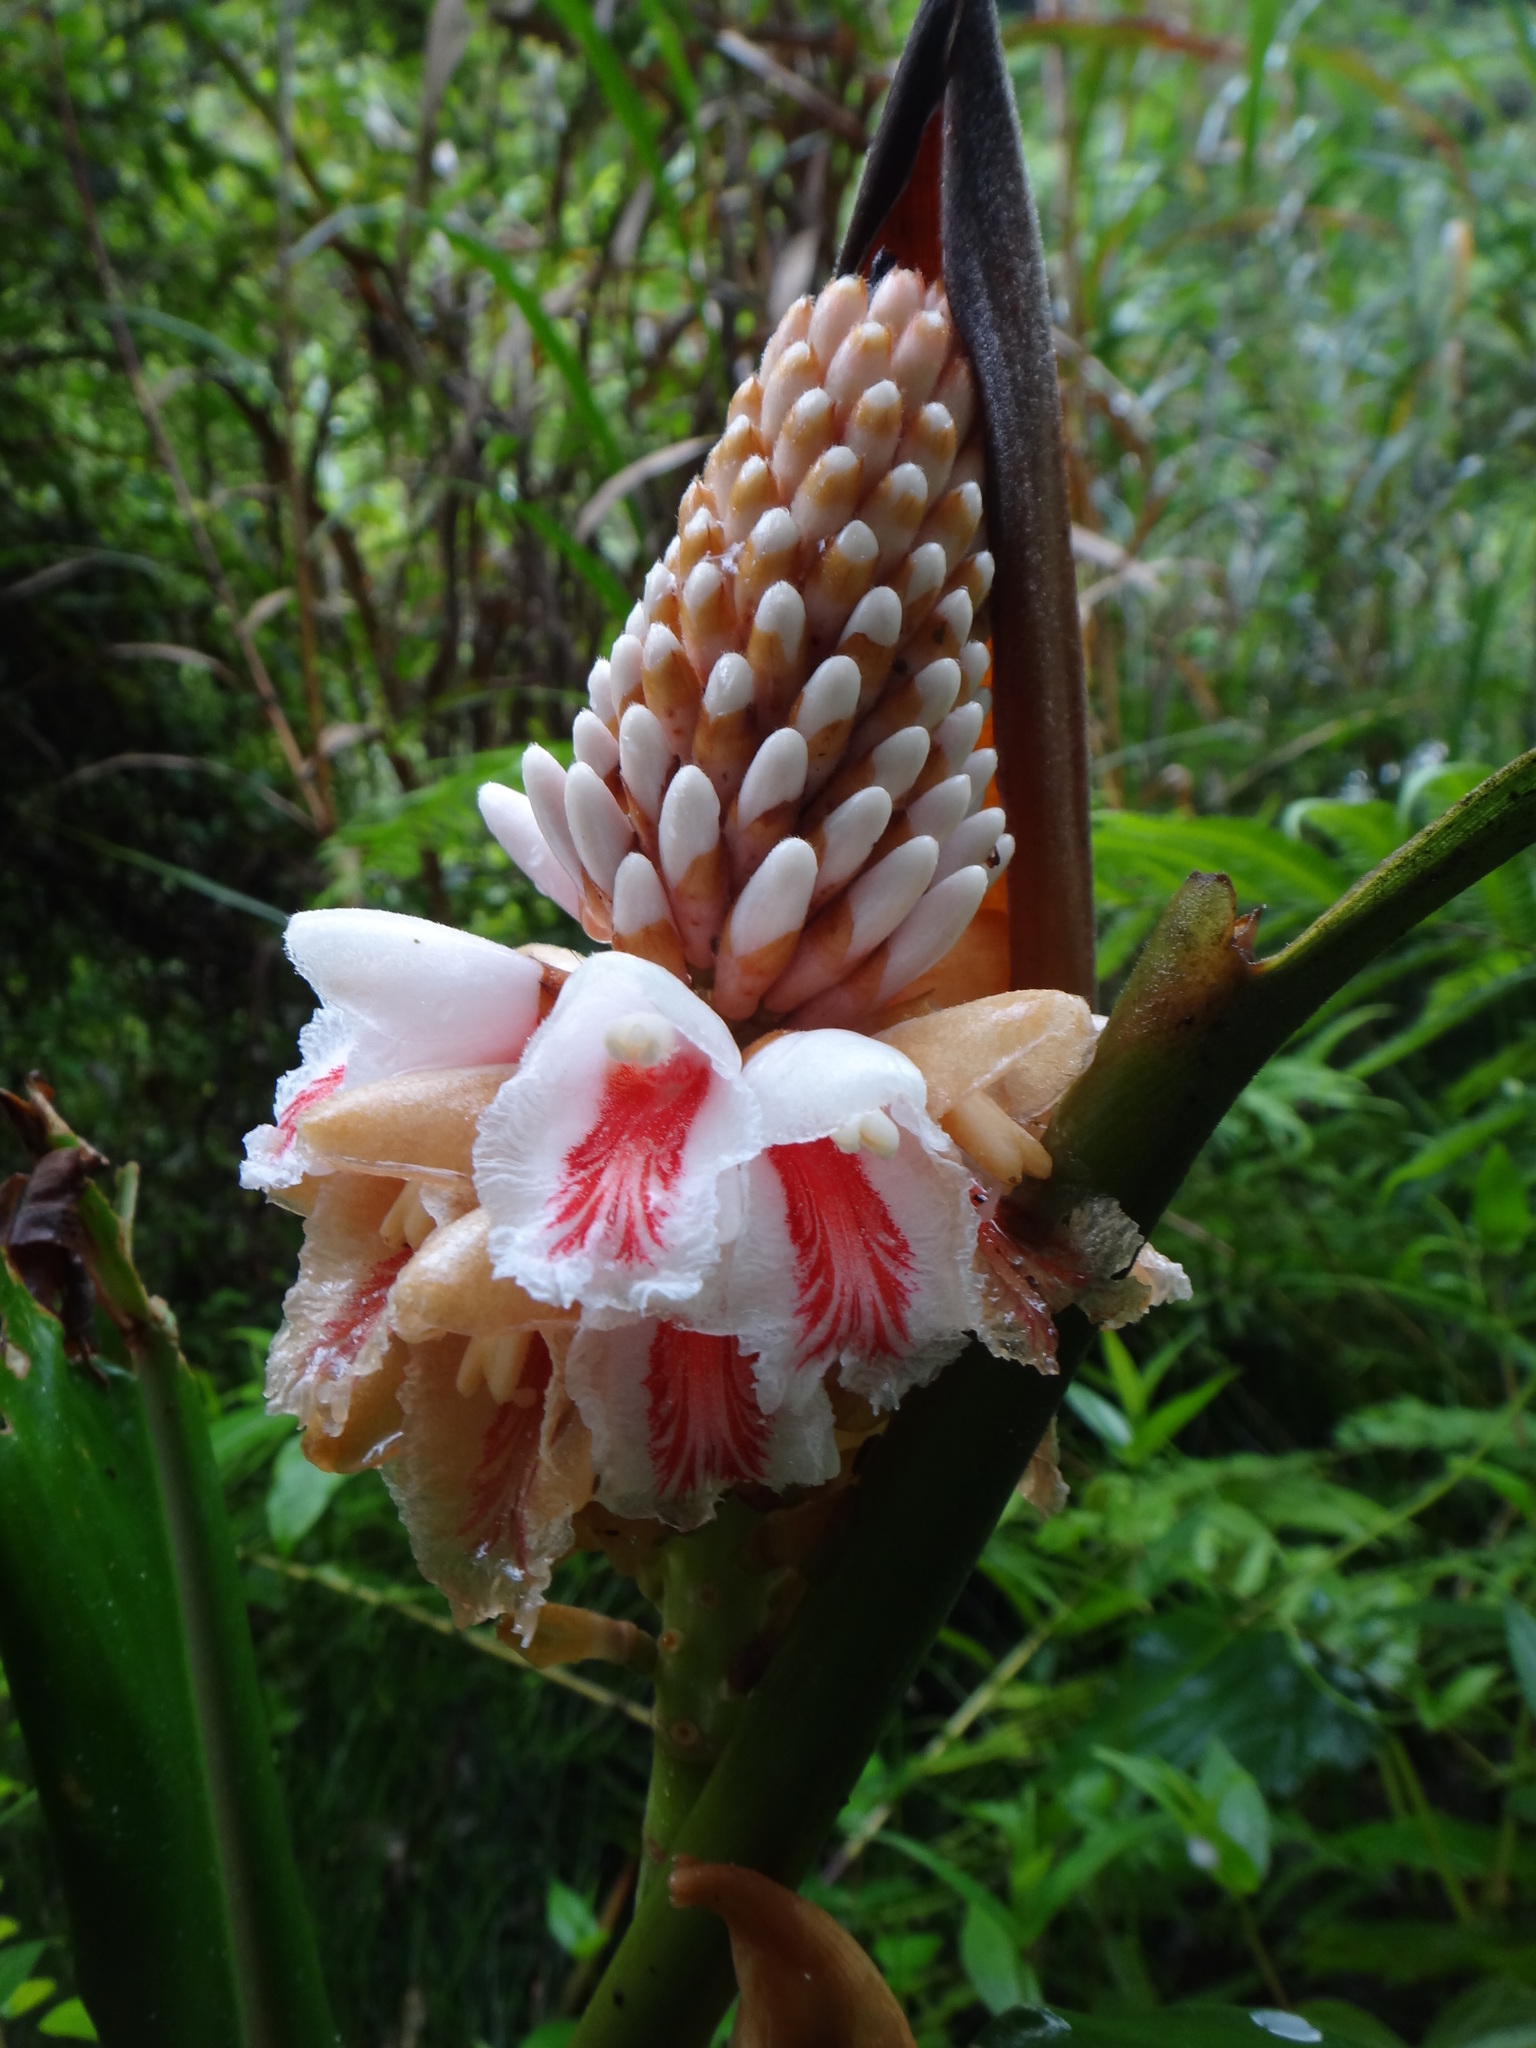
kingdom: Plantae
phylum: Tracheophyta
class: Liliopsida
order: Zingiberales
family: Zingiberaceae
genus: Alpinia
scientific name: Alpinia shimadae
